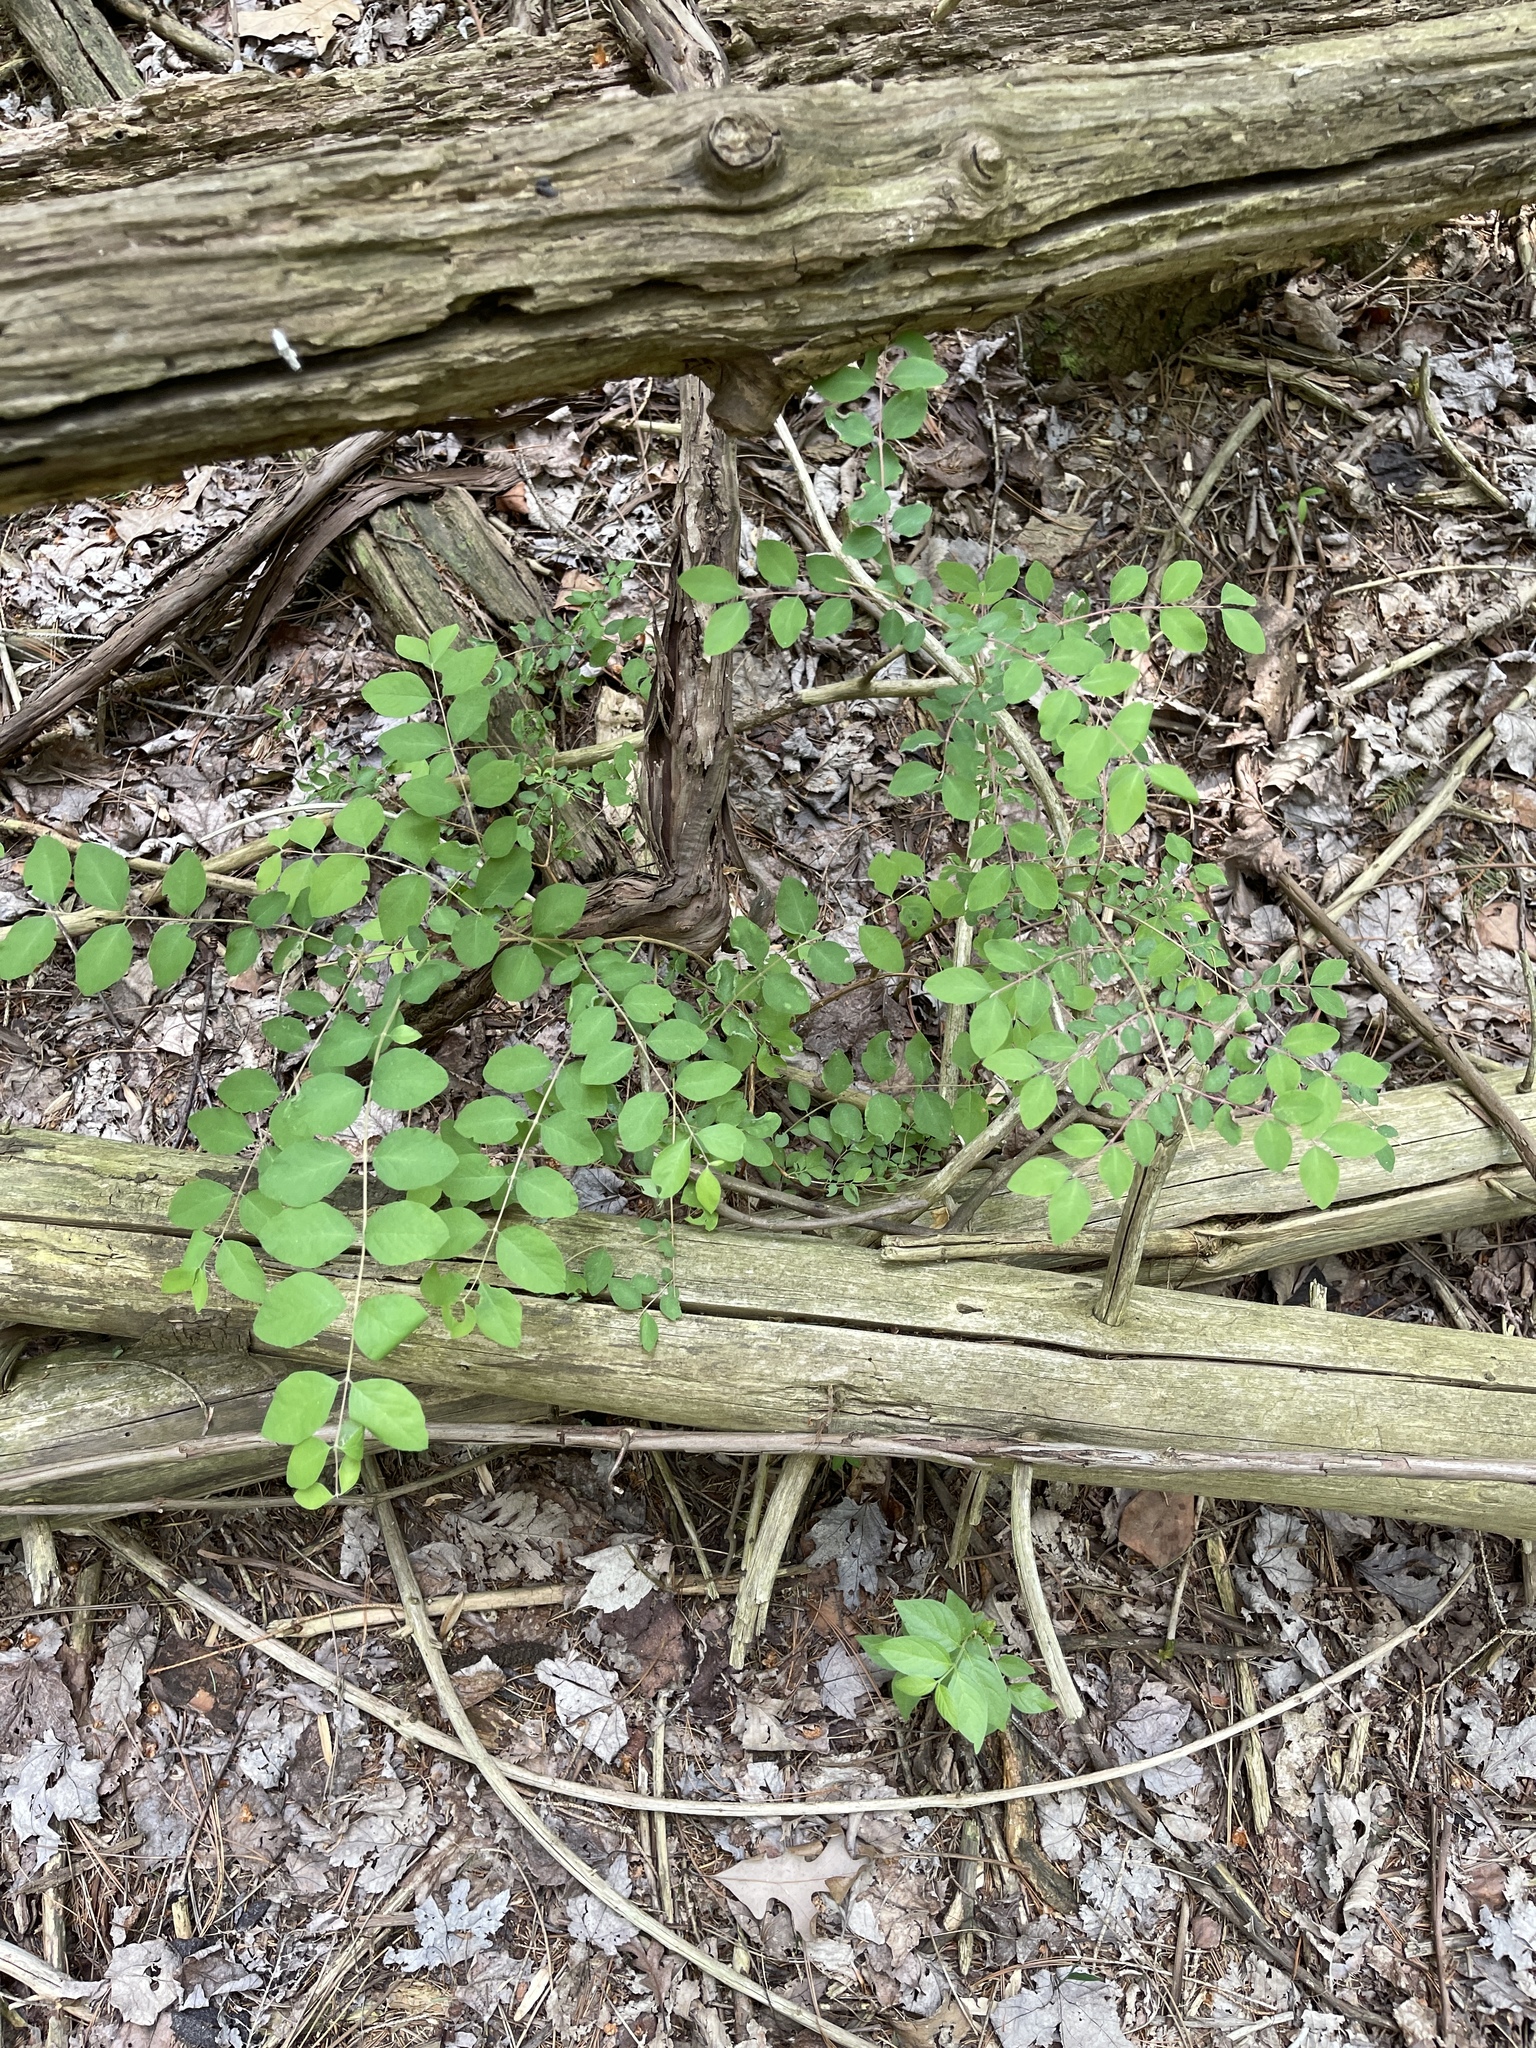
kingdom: Plantae
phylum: Tracheophyta
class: Magnoliopsida
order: Dipsacales
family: Caprifoliaceae
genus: Symphoricarpos
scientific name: Symphoricarpos orbiculatus
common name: Coralberry
